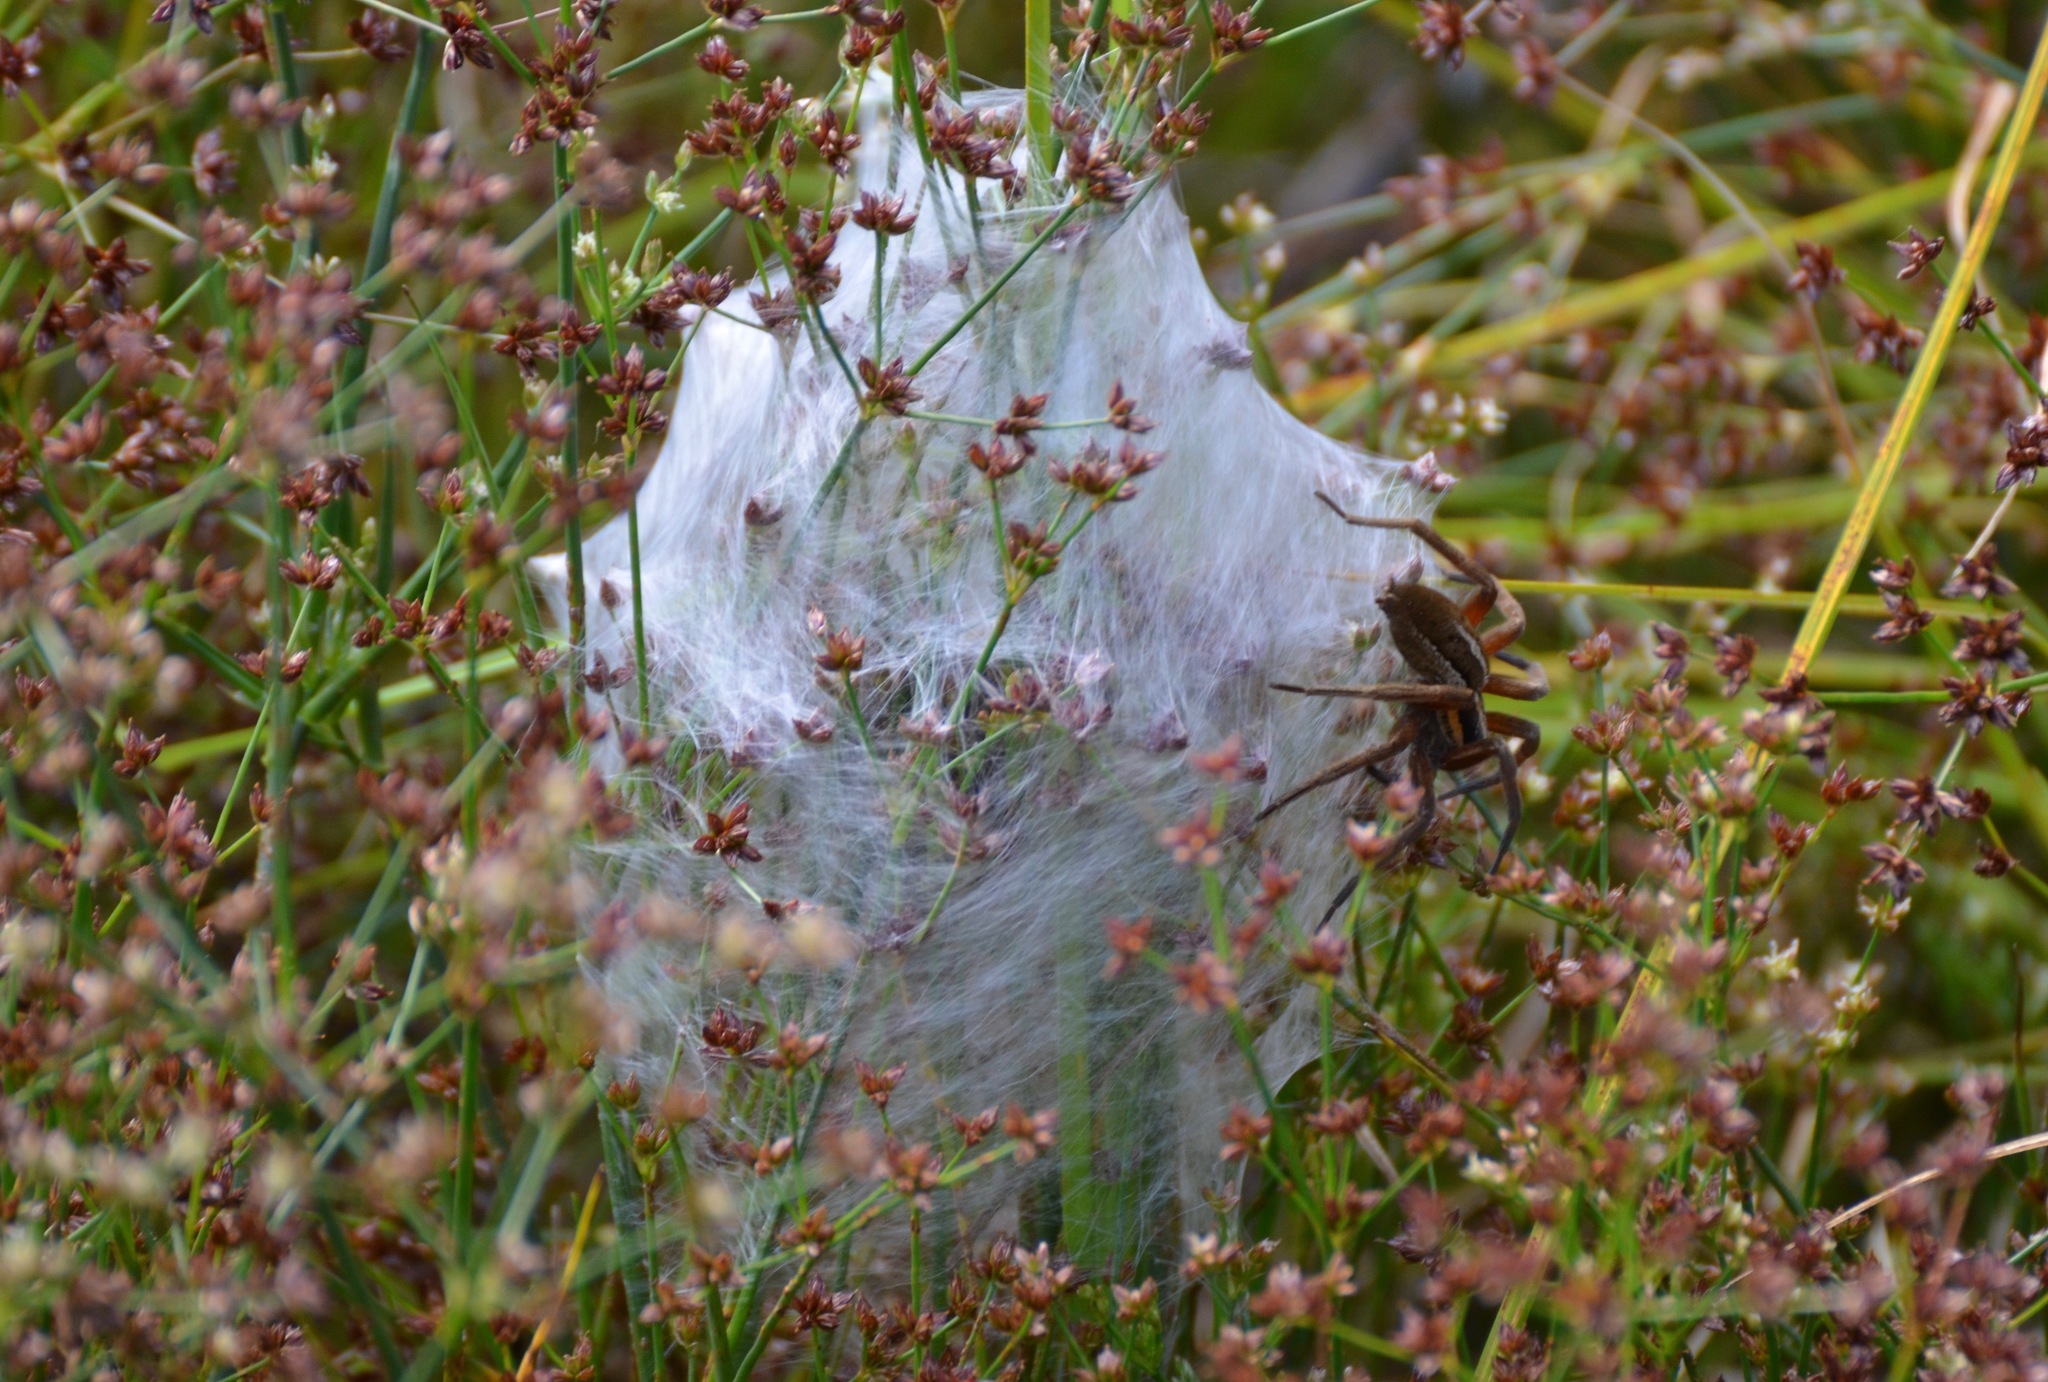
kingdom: Animalia
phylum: Arthropoda
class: Arachnida
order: Araneae
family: Pisauridae
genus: Dolomedes
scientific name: Dolomedes minor
